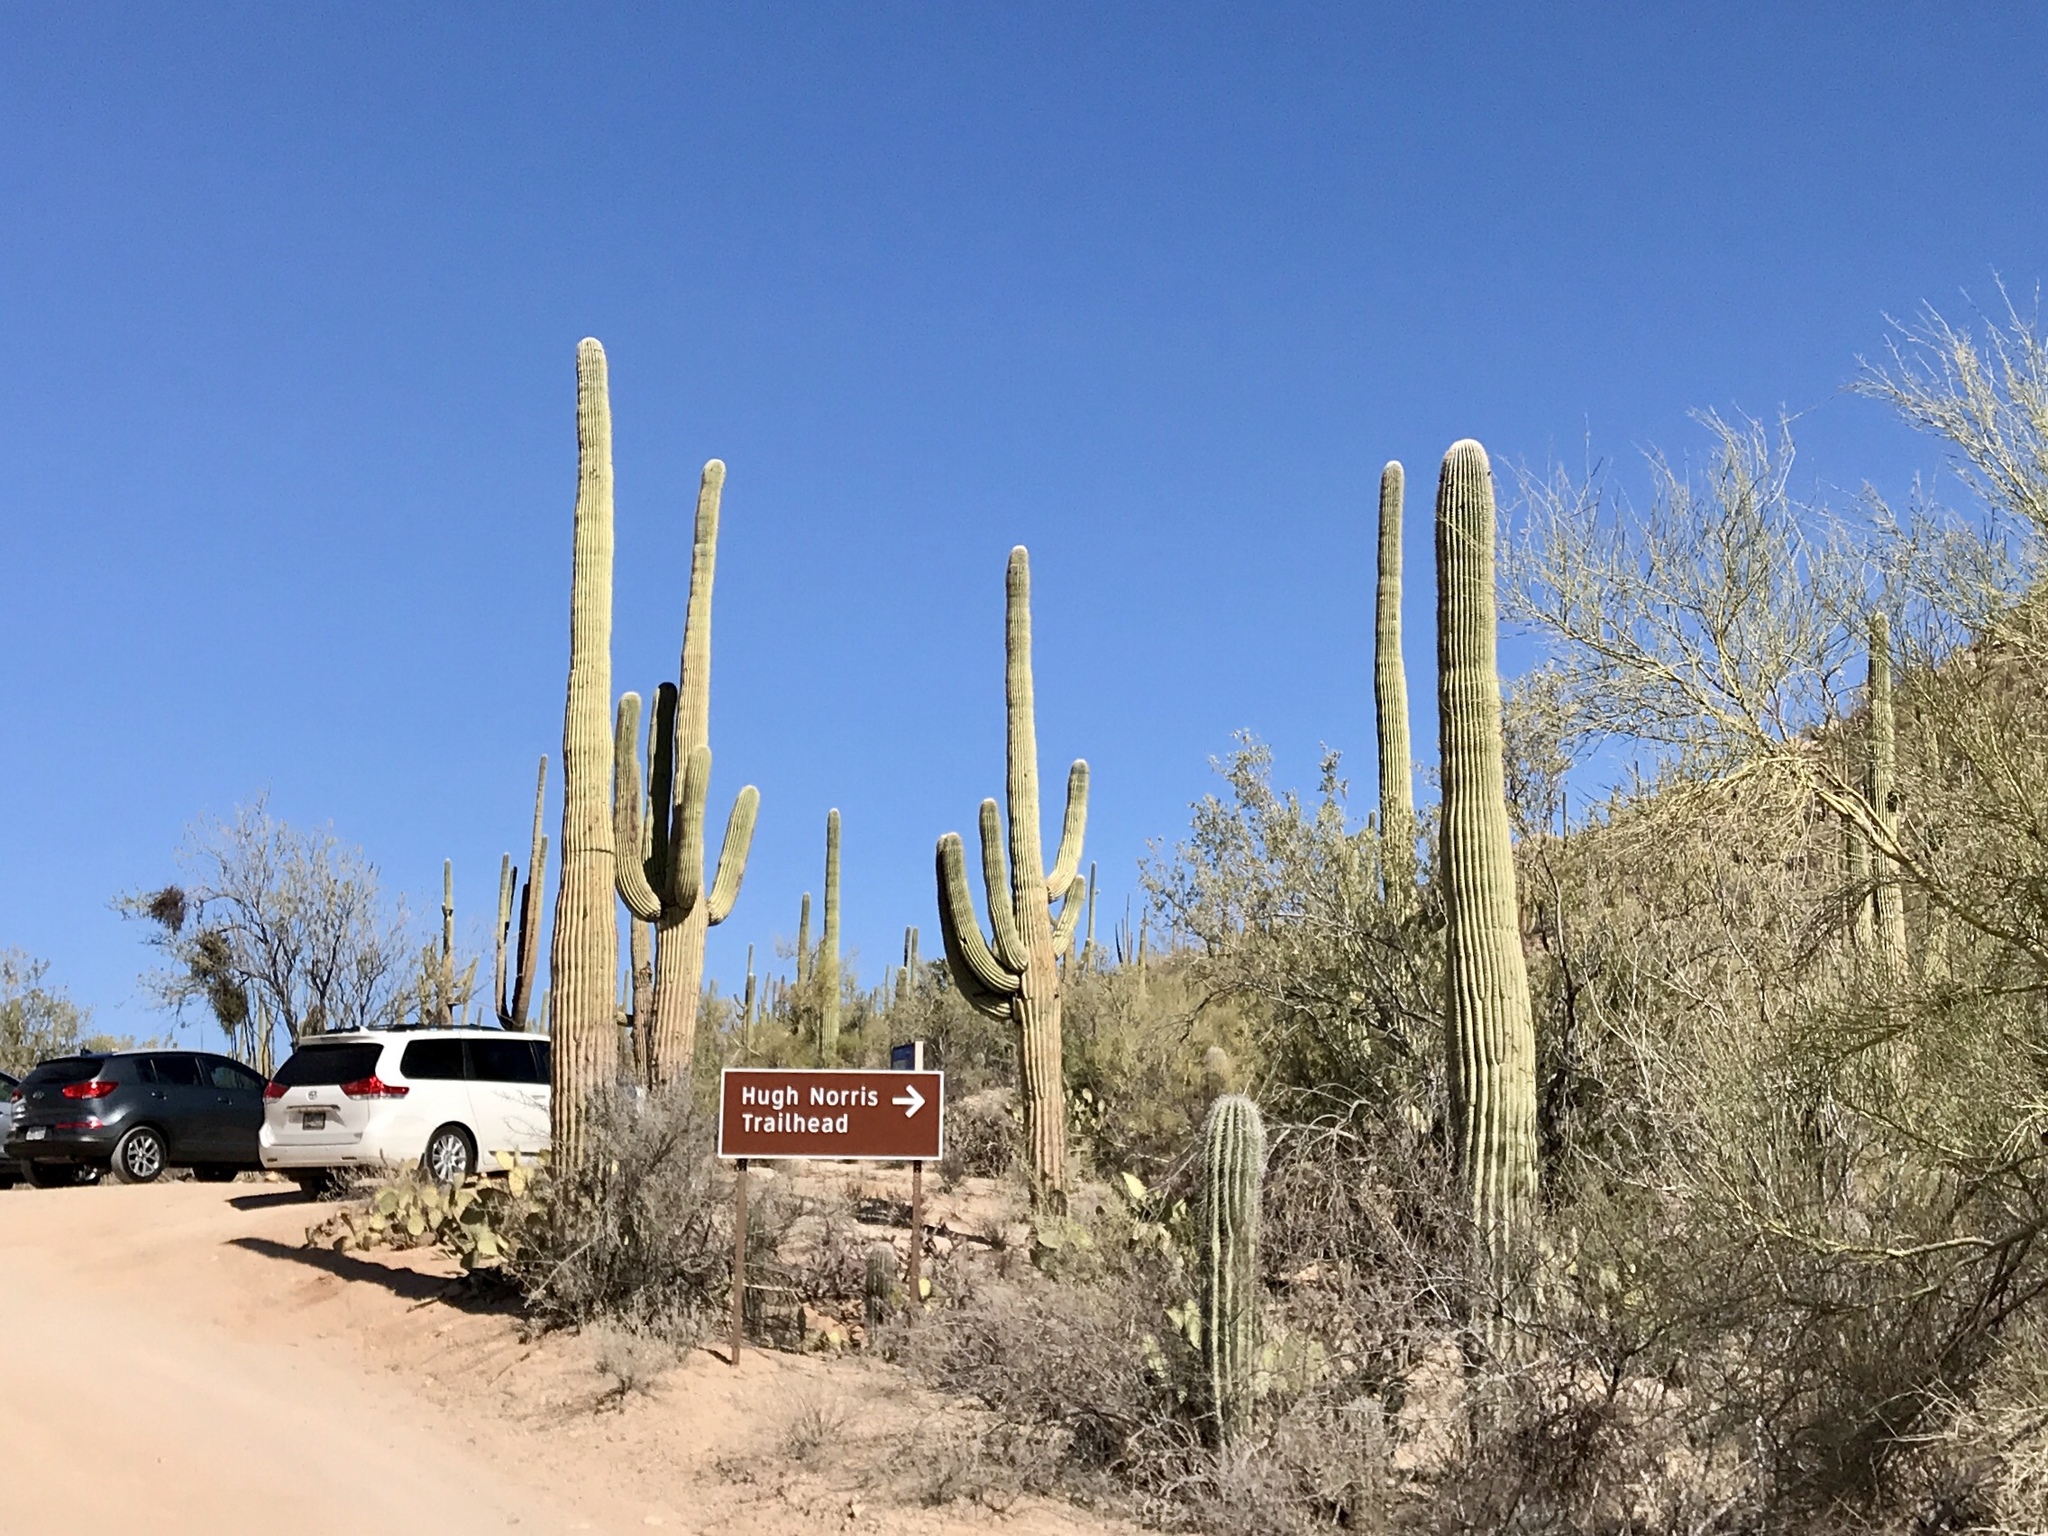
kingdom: Plantae
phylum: Tracheophyta
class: Magnoliopsida
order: Caryophyllales
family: Cactaceae
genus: Carnegiea
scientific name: Carnegiea gigantea
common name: Saguaro
